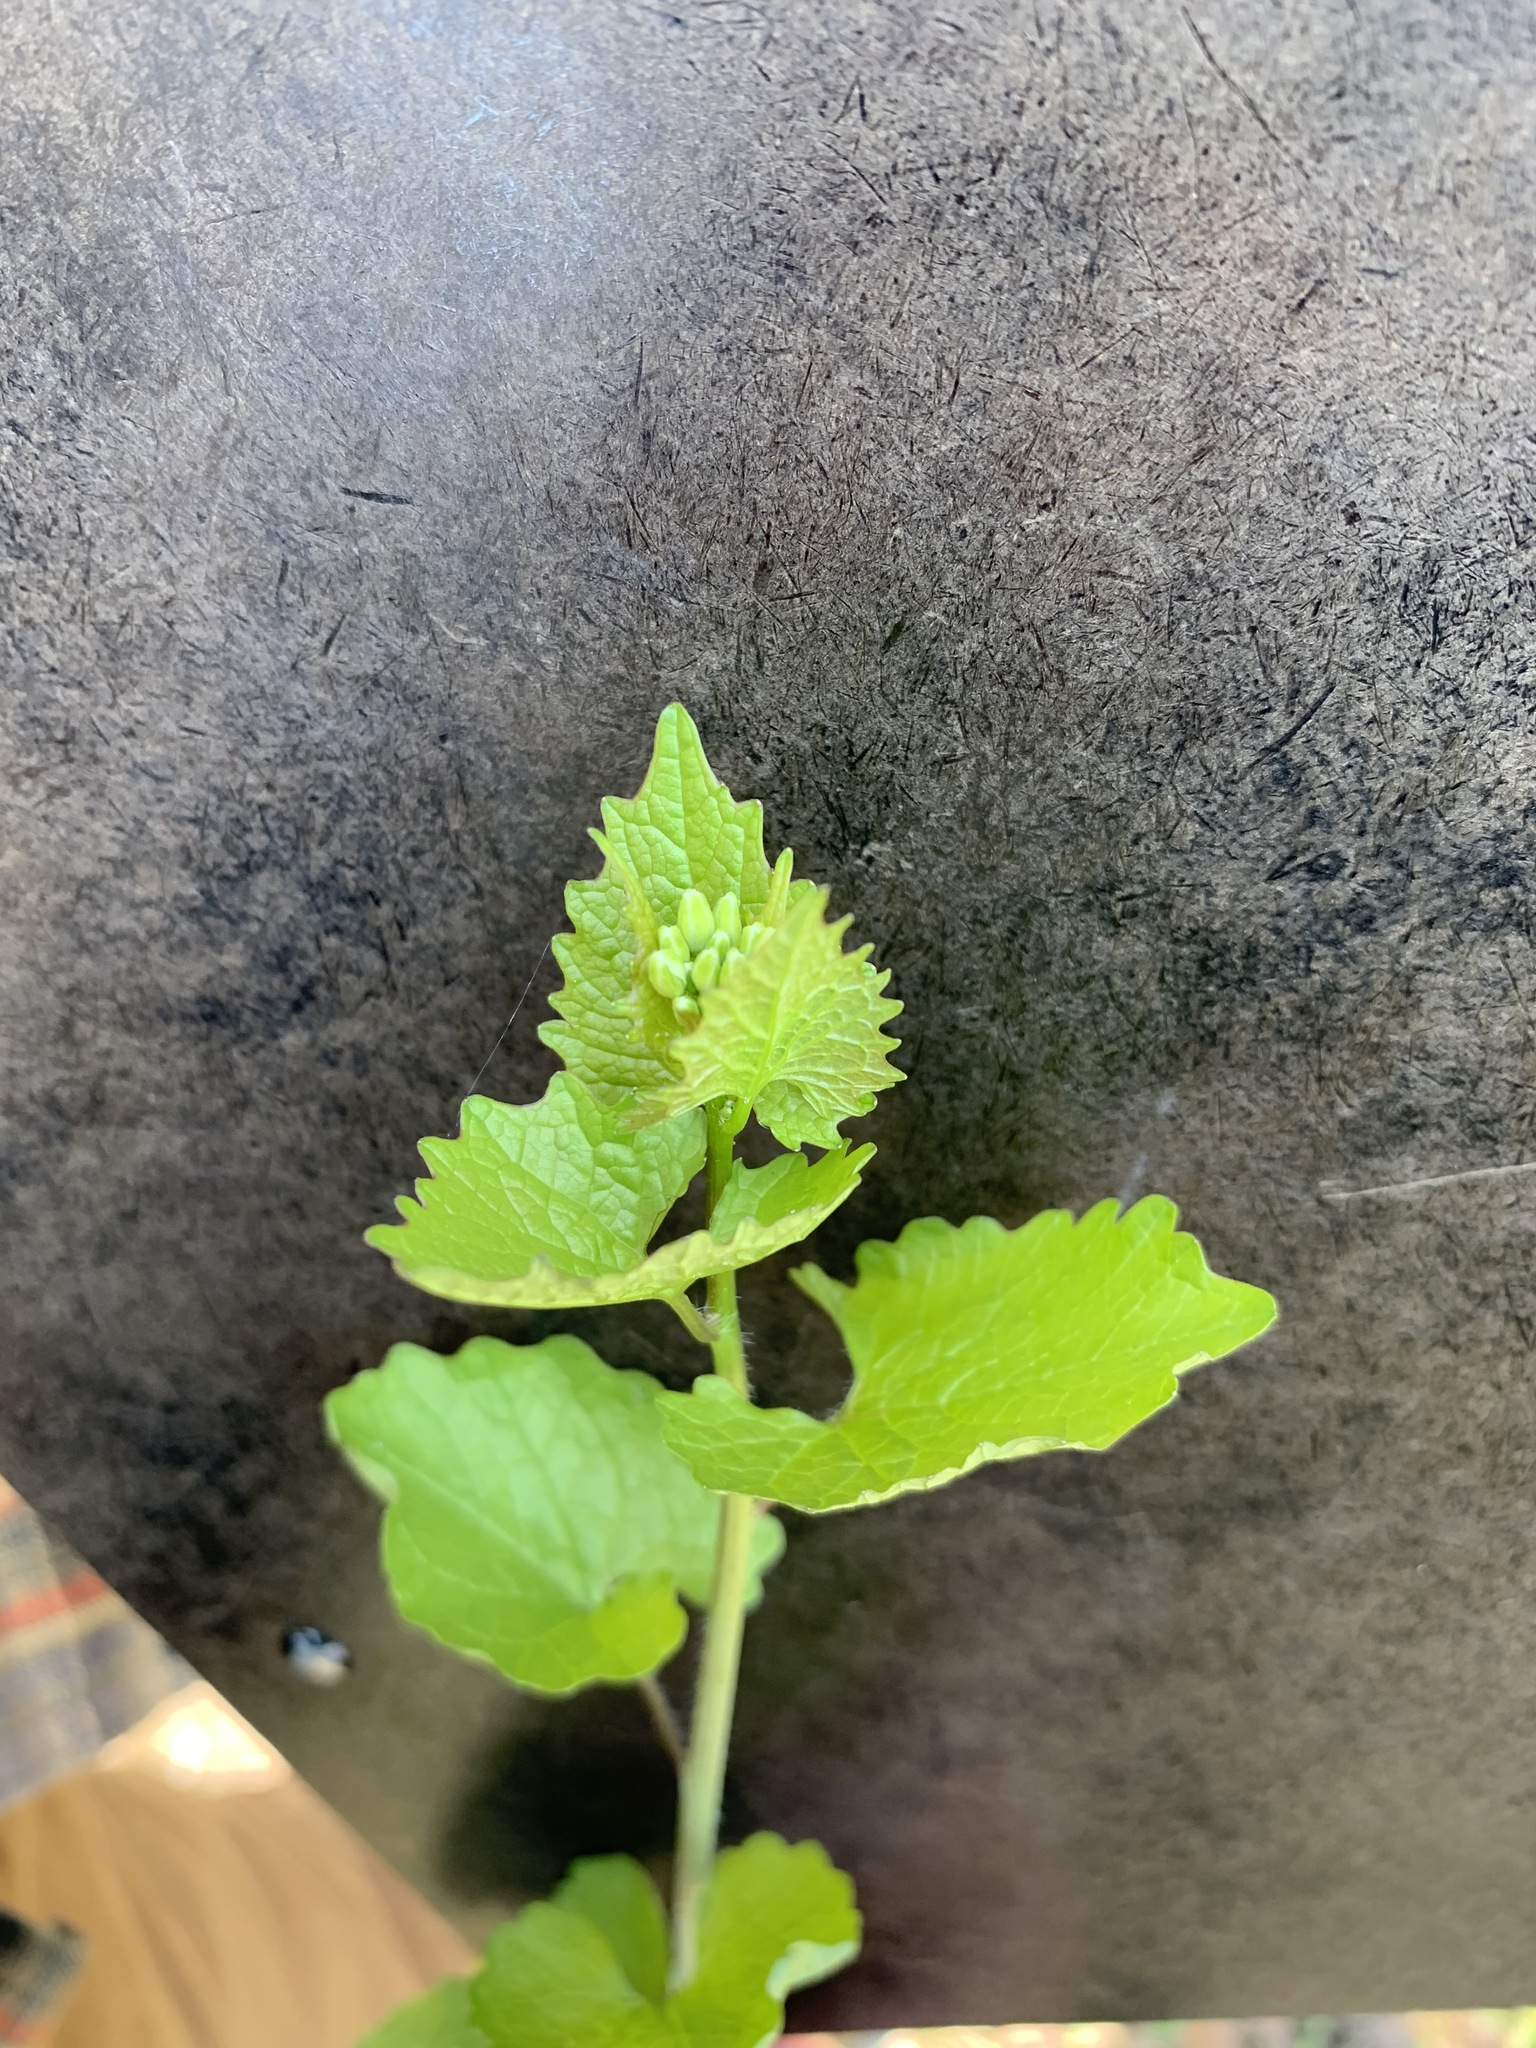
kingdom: Plantae
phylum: Tracheophyta
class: Magnoliopsida
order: Brassicales
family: Brassicaceae
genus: Alliaria
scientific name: Alliaria petiolata
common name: Garlic mustard
